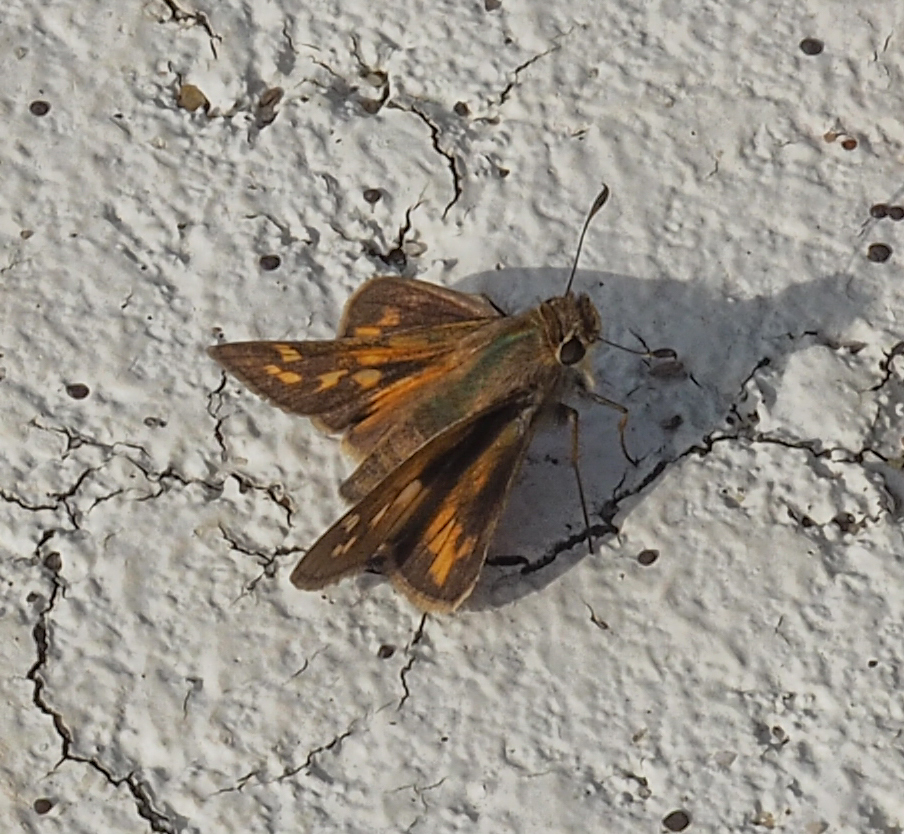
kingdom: Animalia
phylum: Arthropoda
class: Insecta
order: Lepidoptera
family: Hesperiidae
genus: Atalopedes
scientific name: Atalopedes
